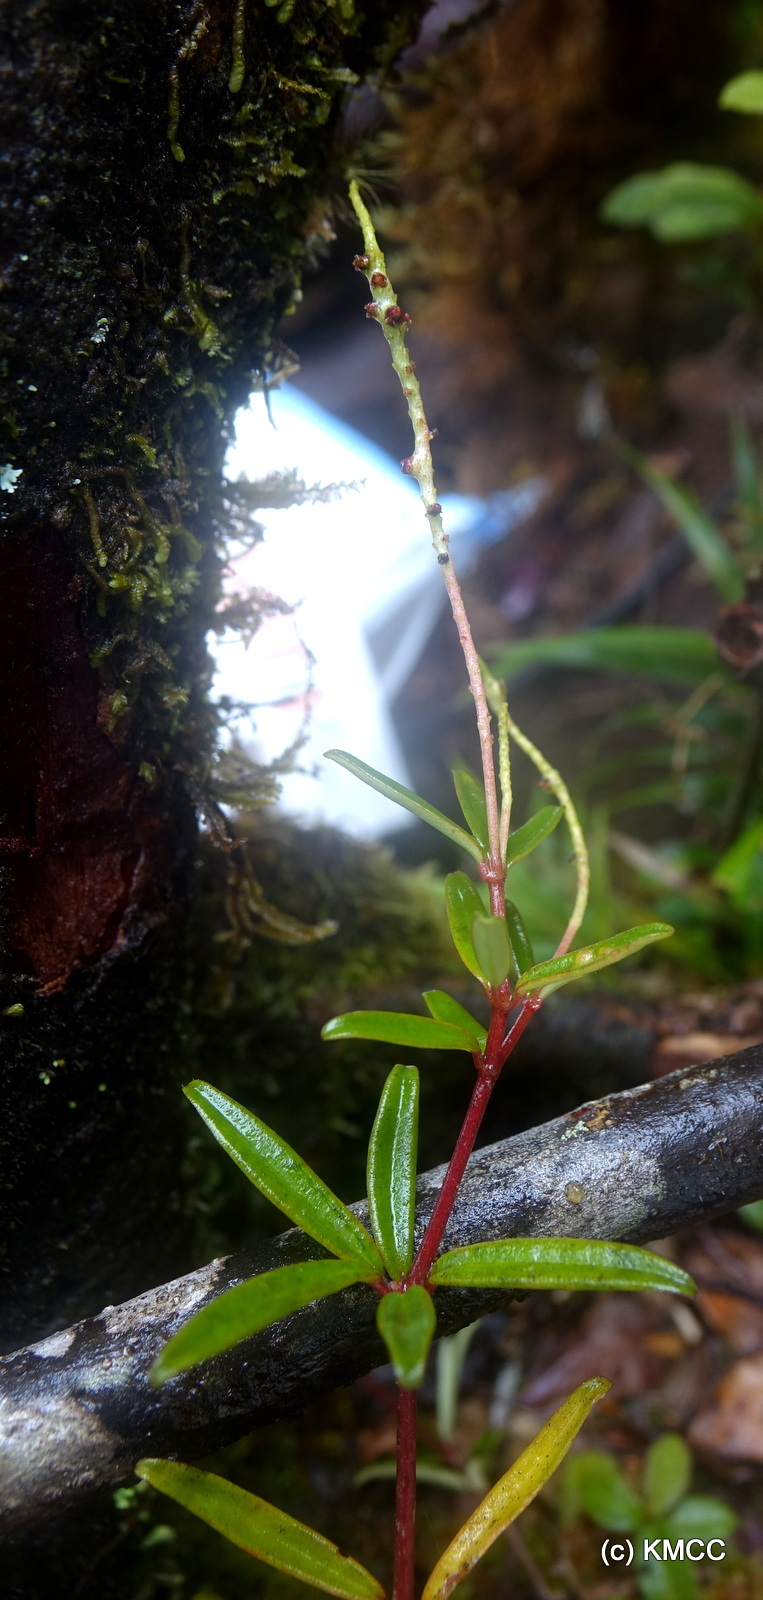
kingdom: Plantae
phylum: Tracheophyta
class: Magnoliopsida
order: Piperales
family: Piperaceae
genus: Peperomia
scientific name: Peperomia humbertii
